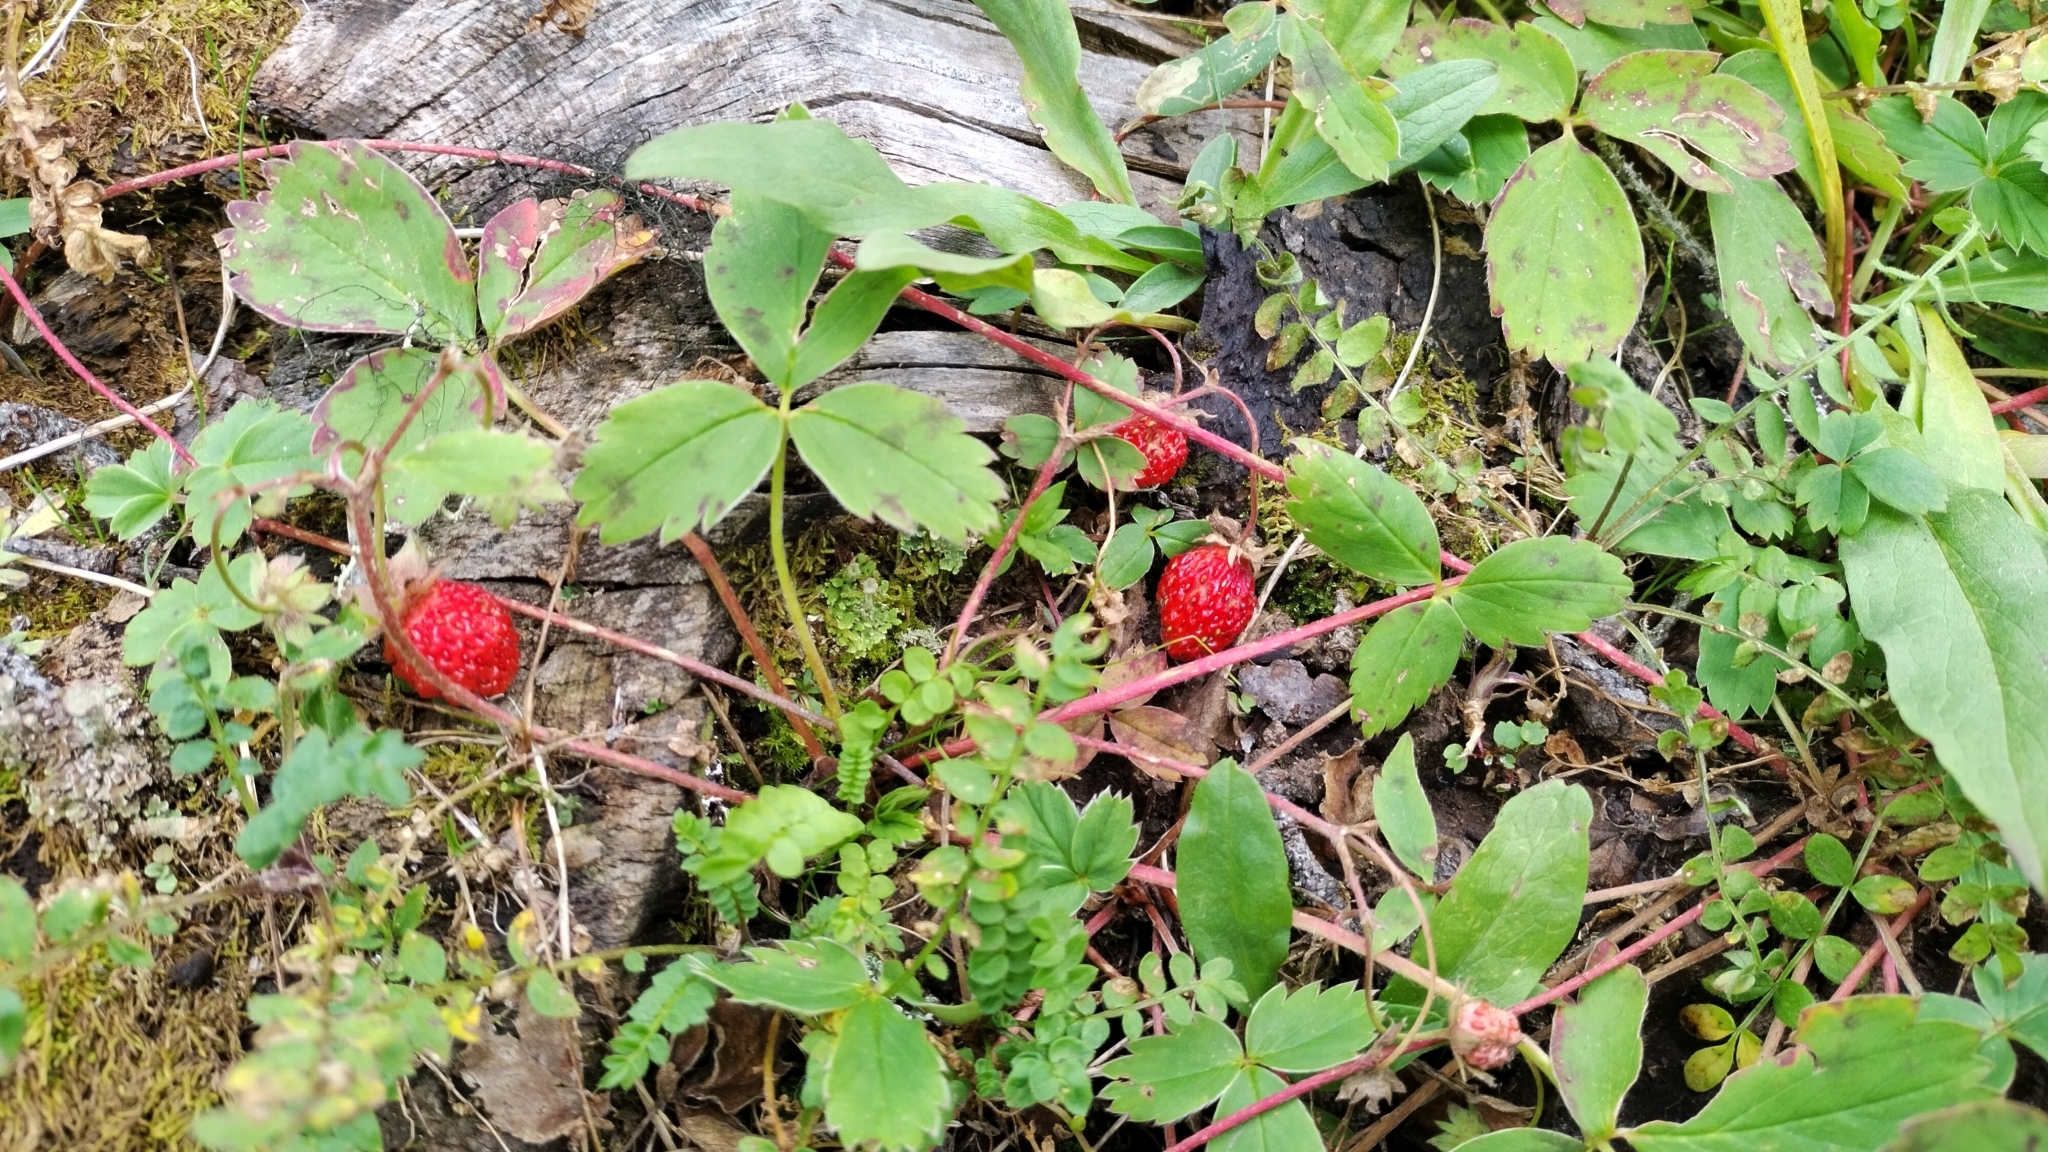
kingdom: Plantae
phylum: Tracheophyta
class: Magnoliopsida
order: Rosales
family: Rosaceae
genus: Fragaria
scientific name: Fragaria virginiana
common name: Thickleaved wild strawberry
